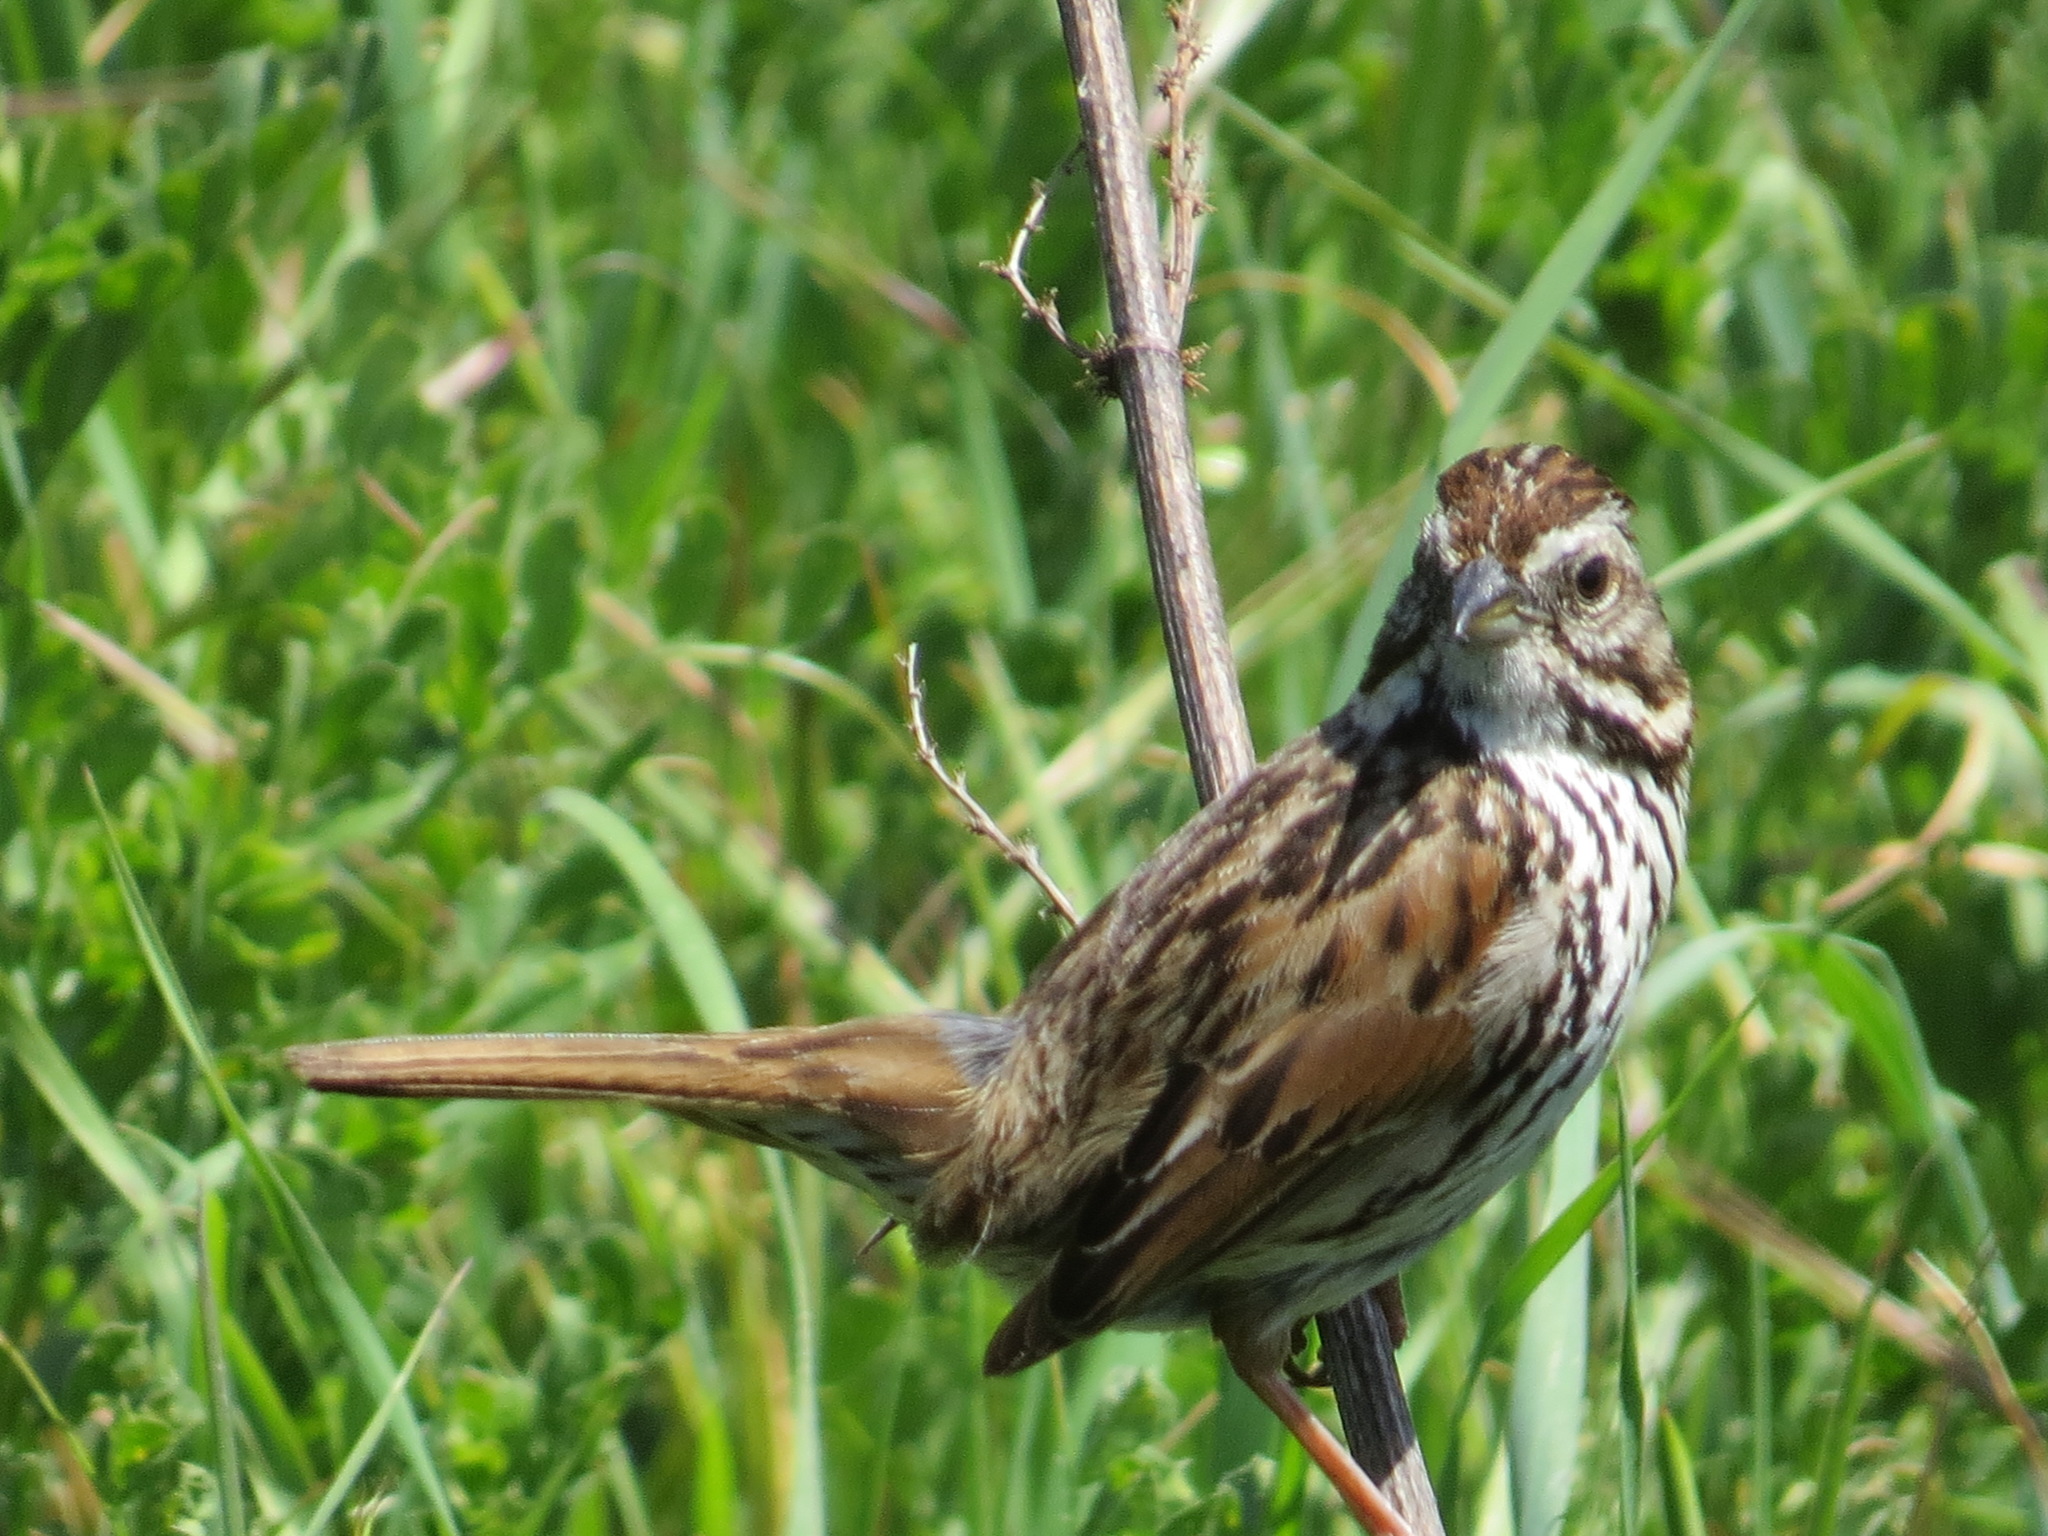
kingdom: Animalia
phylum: Chordata
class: Aves
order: Passeriformes
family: Passerellidae
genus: Melospiza
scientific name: Melospiza melodia
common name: Song sparrow
